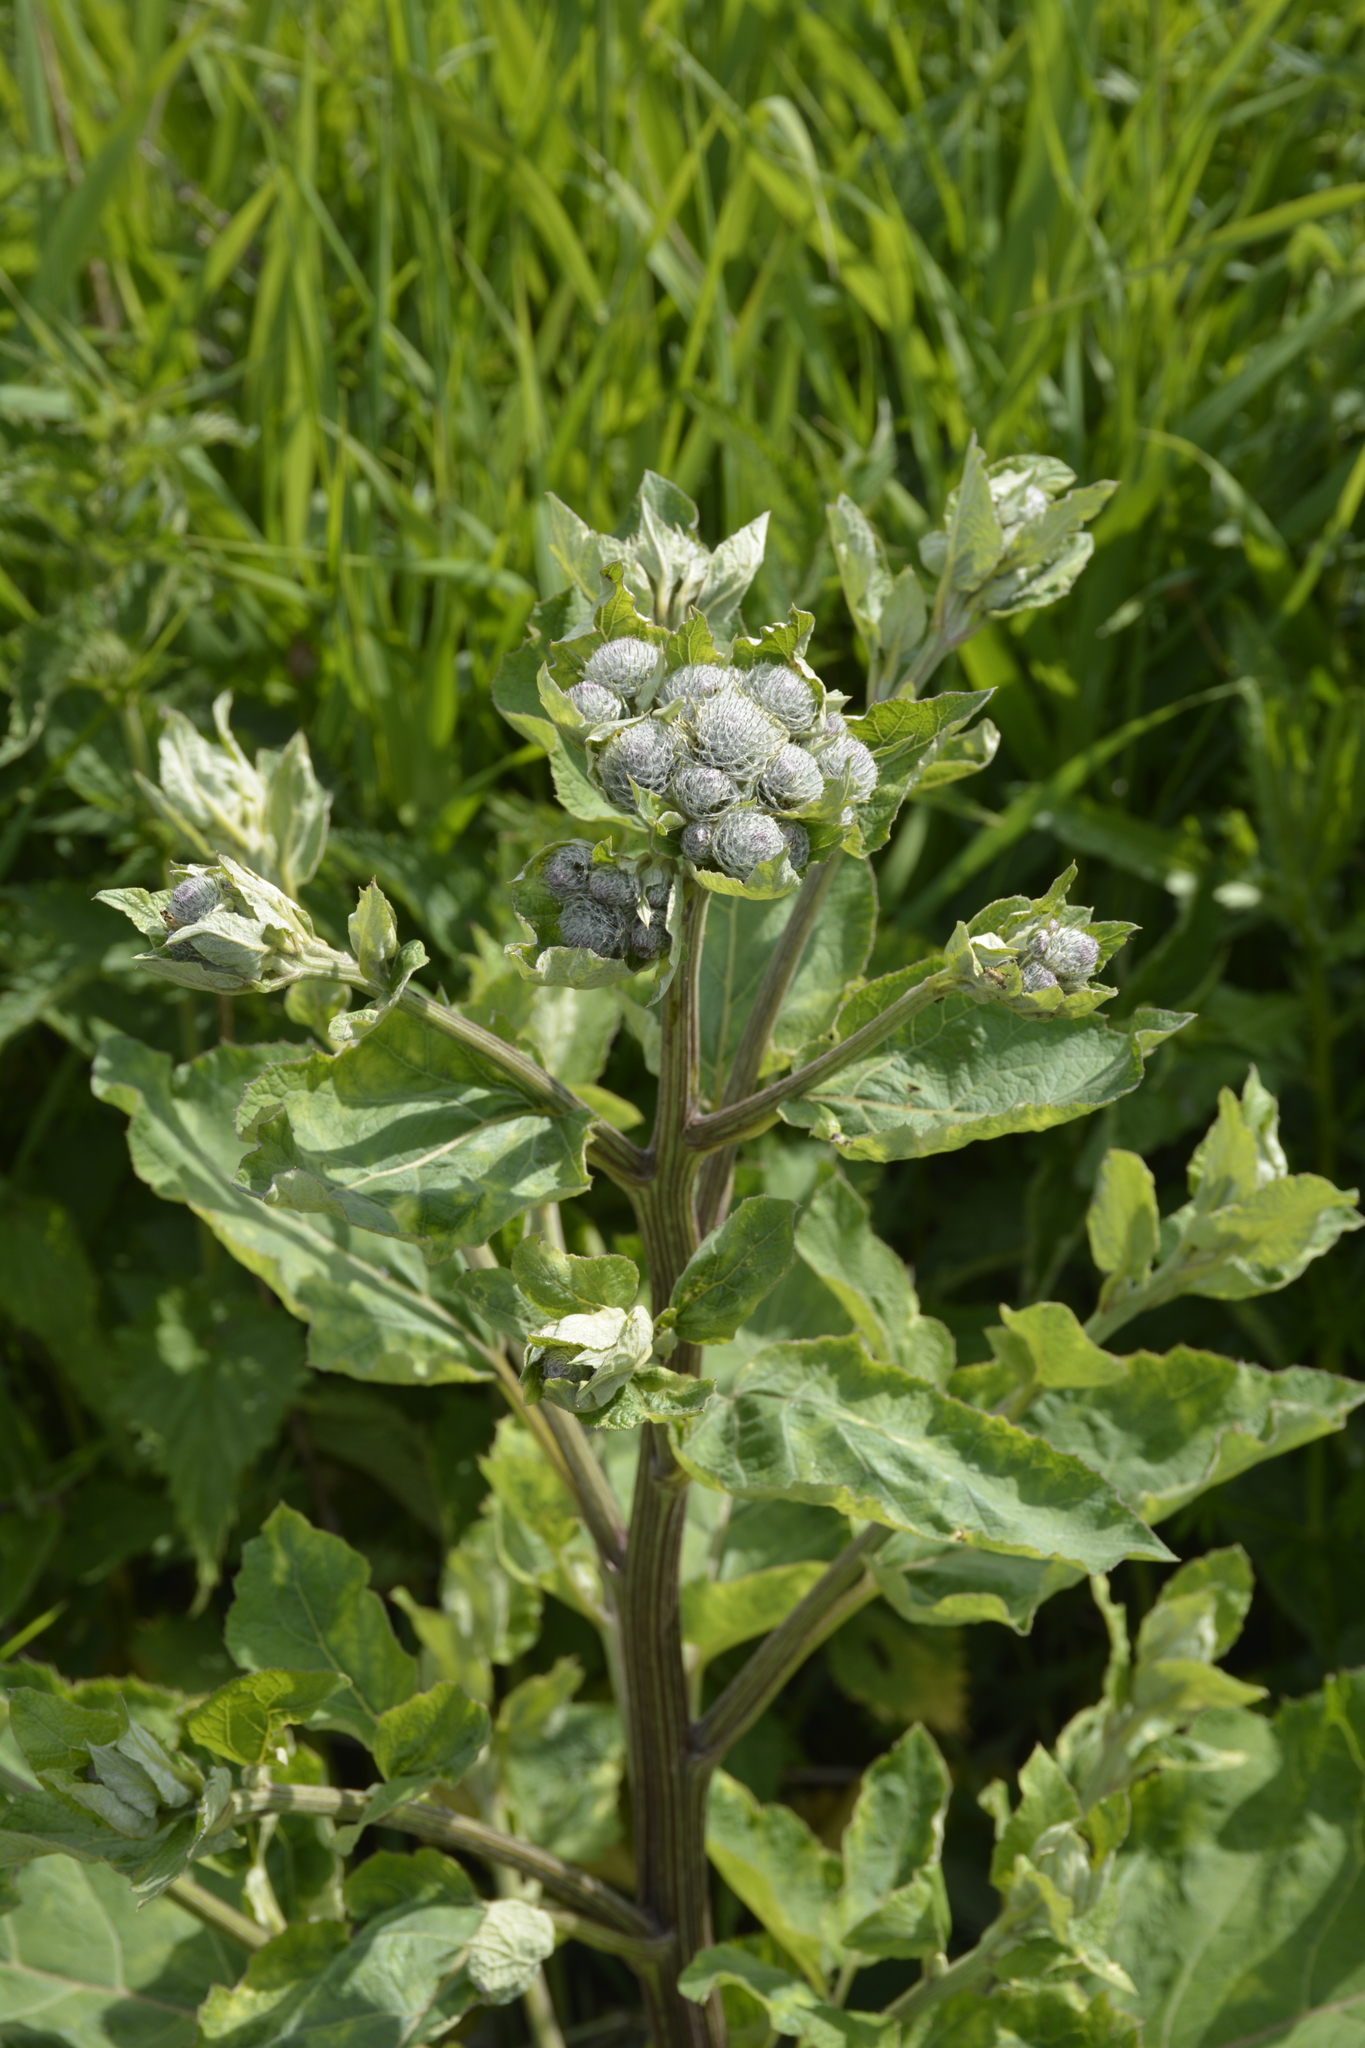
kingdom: Plantae
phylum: Tracheophyta
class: Magnoliopsida
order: Asterales
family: Asteraceae
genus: Arctium
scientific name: Arctium tomentosum
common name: Woolly burdock
